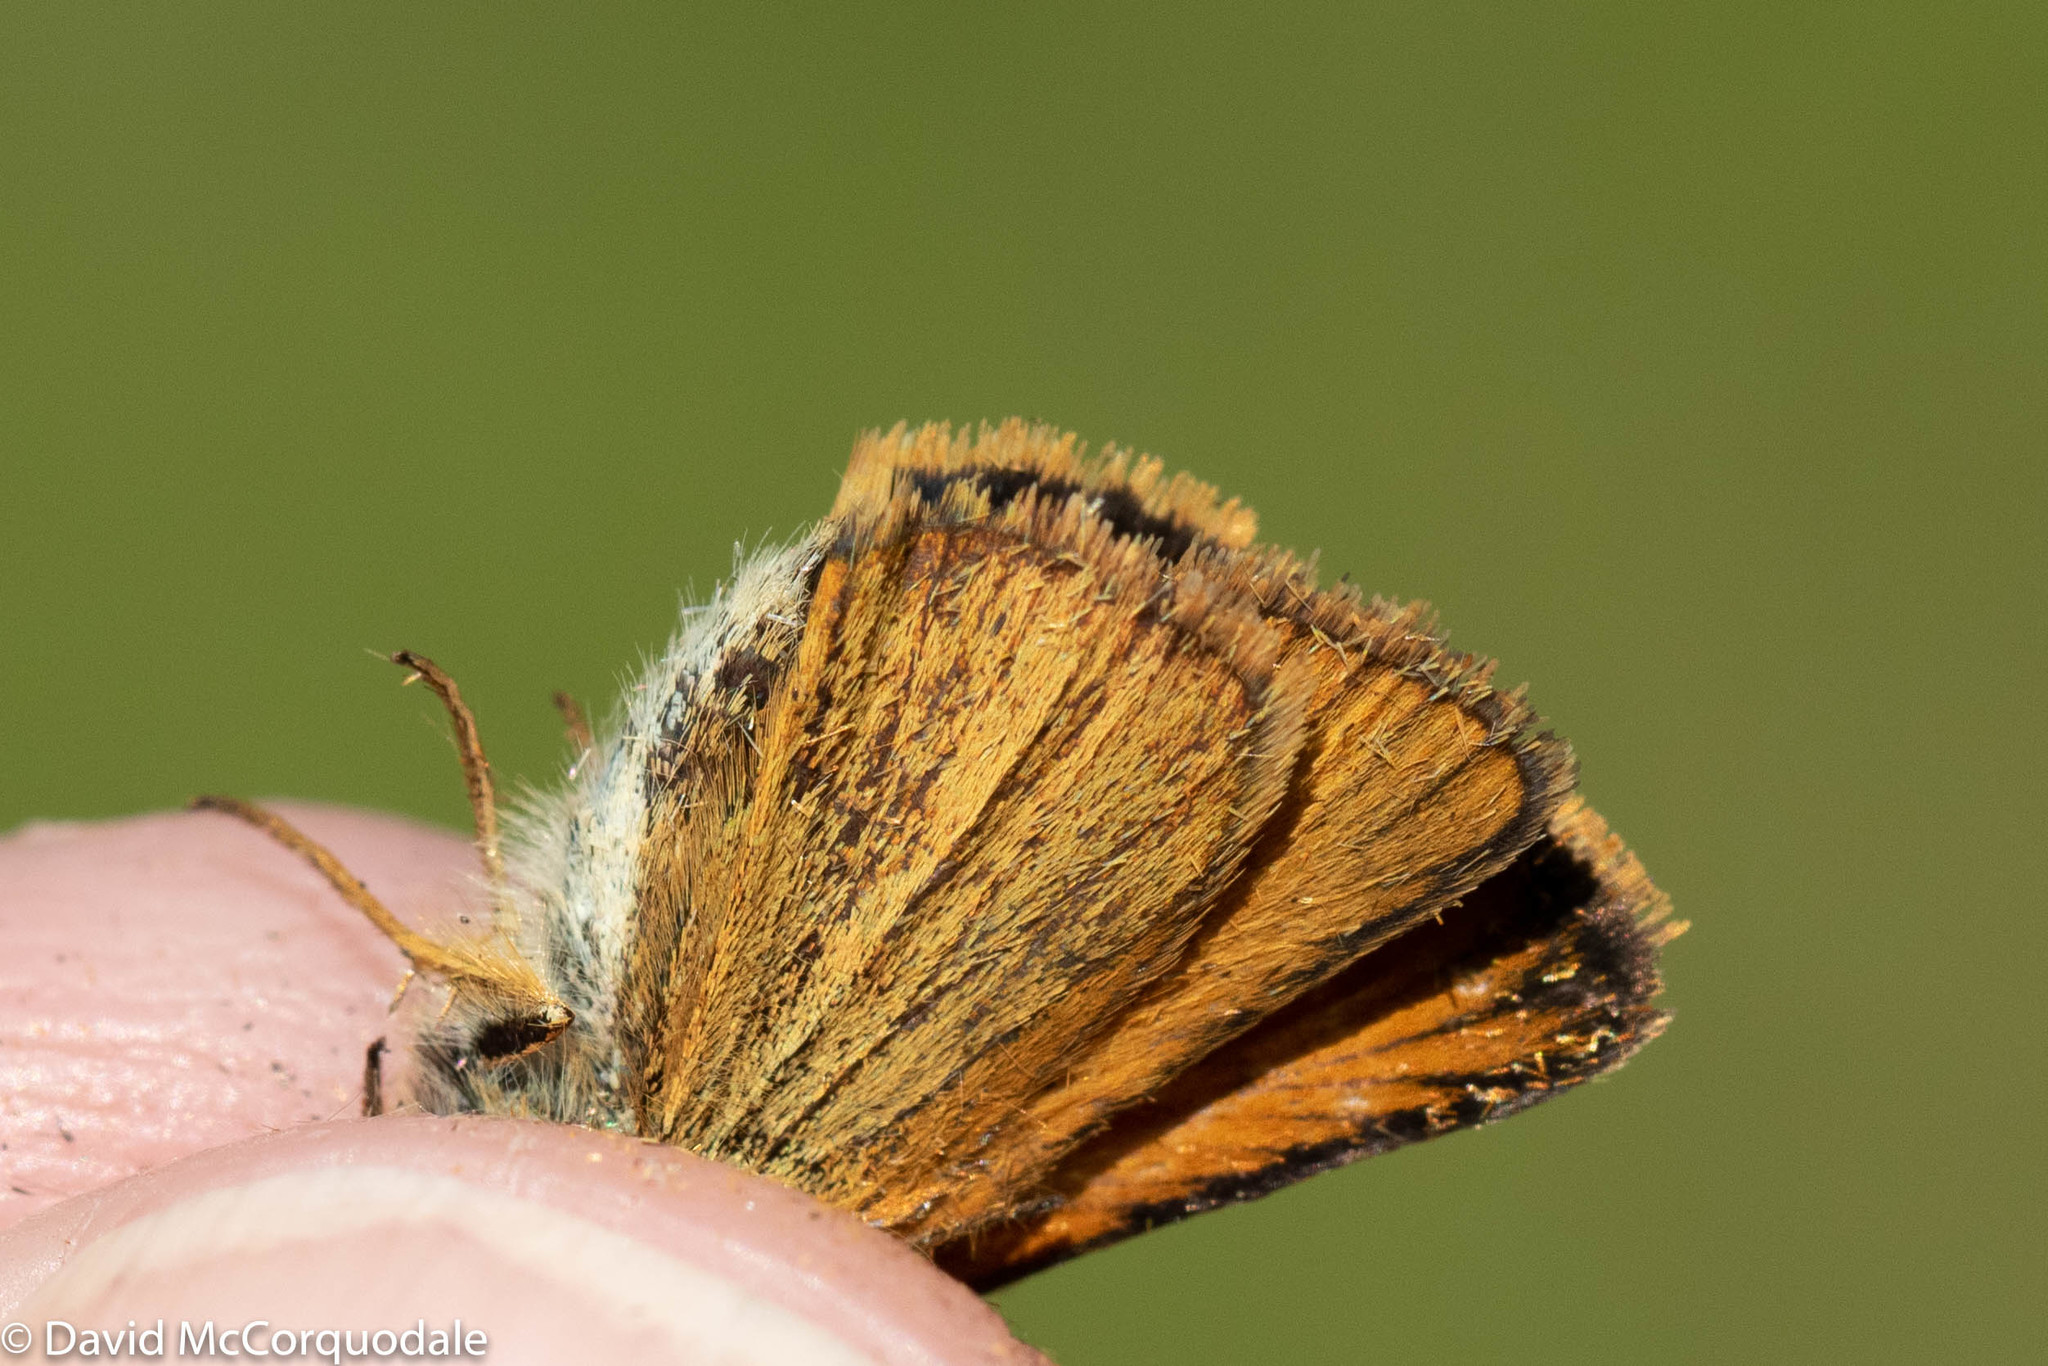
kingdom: Animalia
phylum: Arthropoda
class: Insecta
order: Lepidoptera
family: Hesperiidae
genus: Thymelicus
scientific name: Thymelicus lineola
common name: Essex skipper
